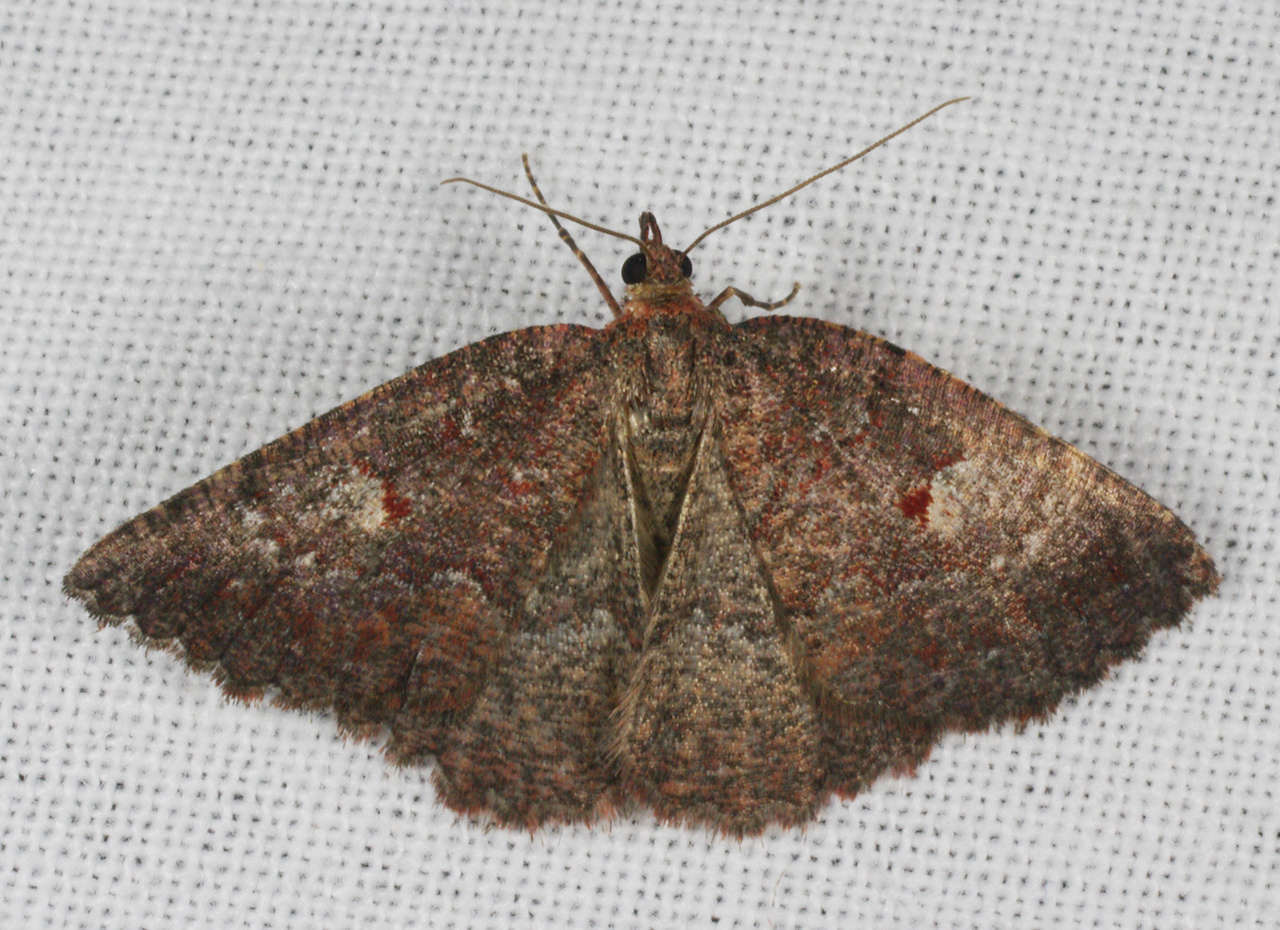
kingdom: Animalia
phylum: Arthropoda
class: Insecta
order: Lepidoptera
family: Geometridae
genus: Apodasmia
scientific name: Apodasmia rufonigraria
